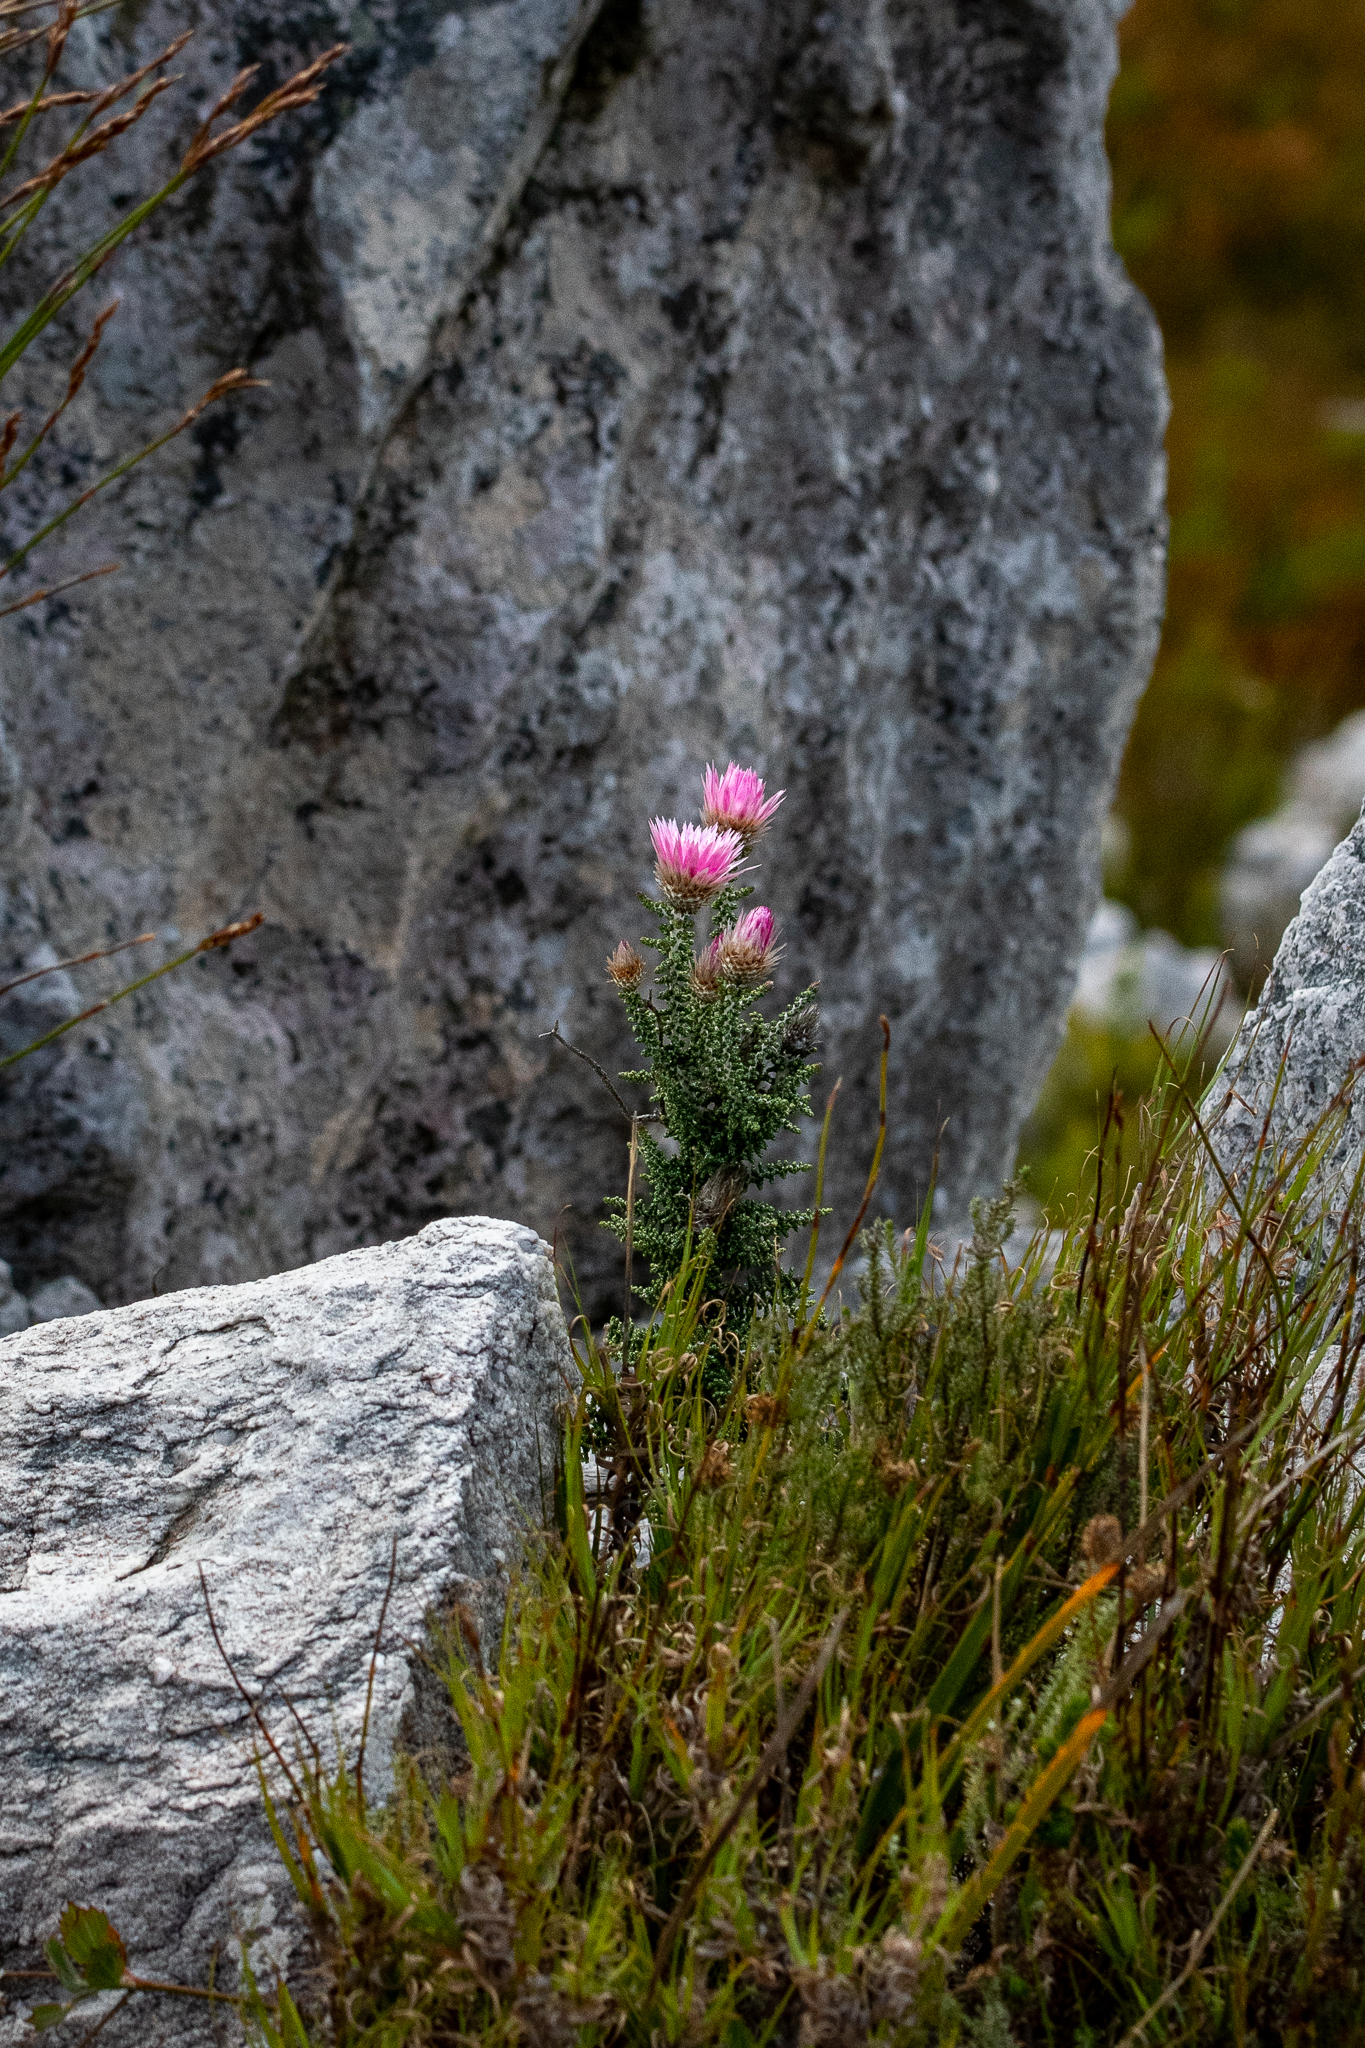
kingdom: Plantae
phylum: Tracheophyta
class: Magnoliopsida
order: Asterales
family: Asteraceae
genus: Phaenocoma
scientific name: Phaenocoma prolifera
